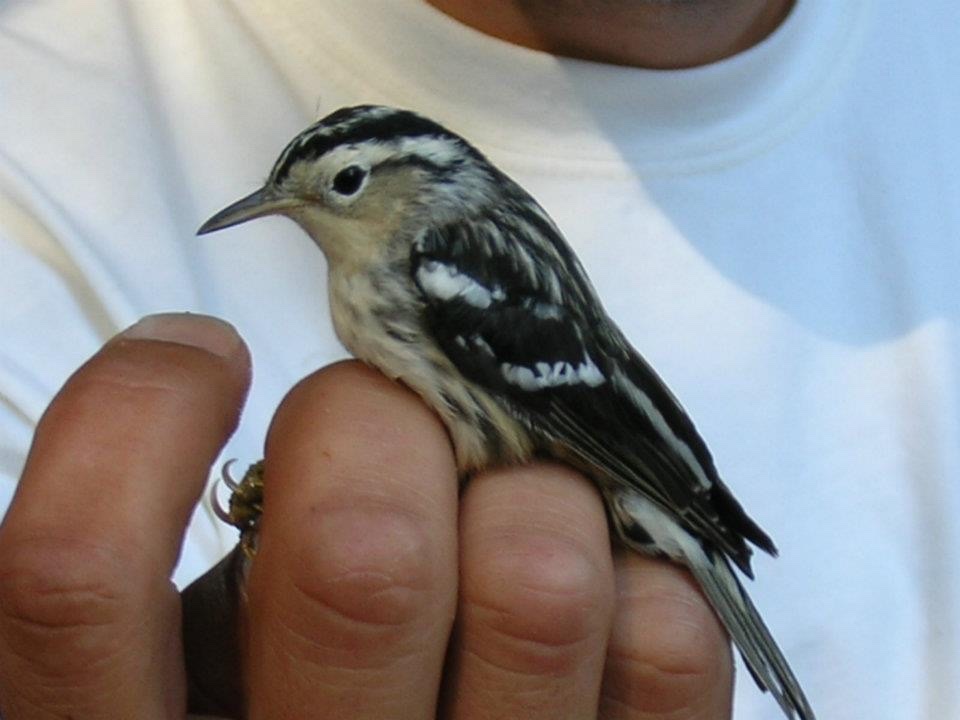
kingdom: Animalia
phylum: Chordata
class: Aves
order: Passeriformes
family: Parulidae
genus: Mniotilta
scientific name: Mniotilta varia
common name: Black-and-white warbler
